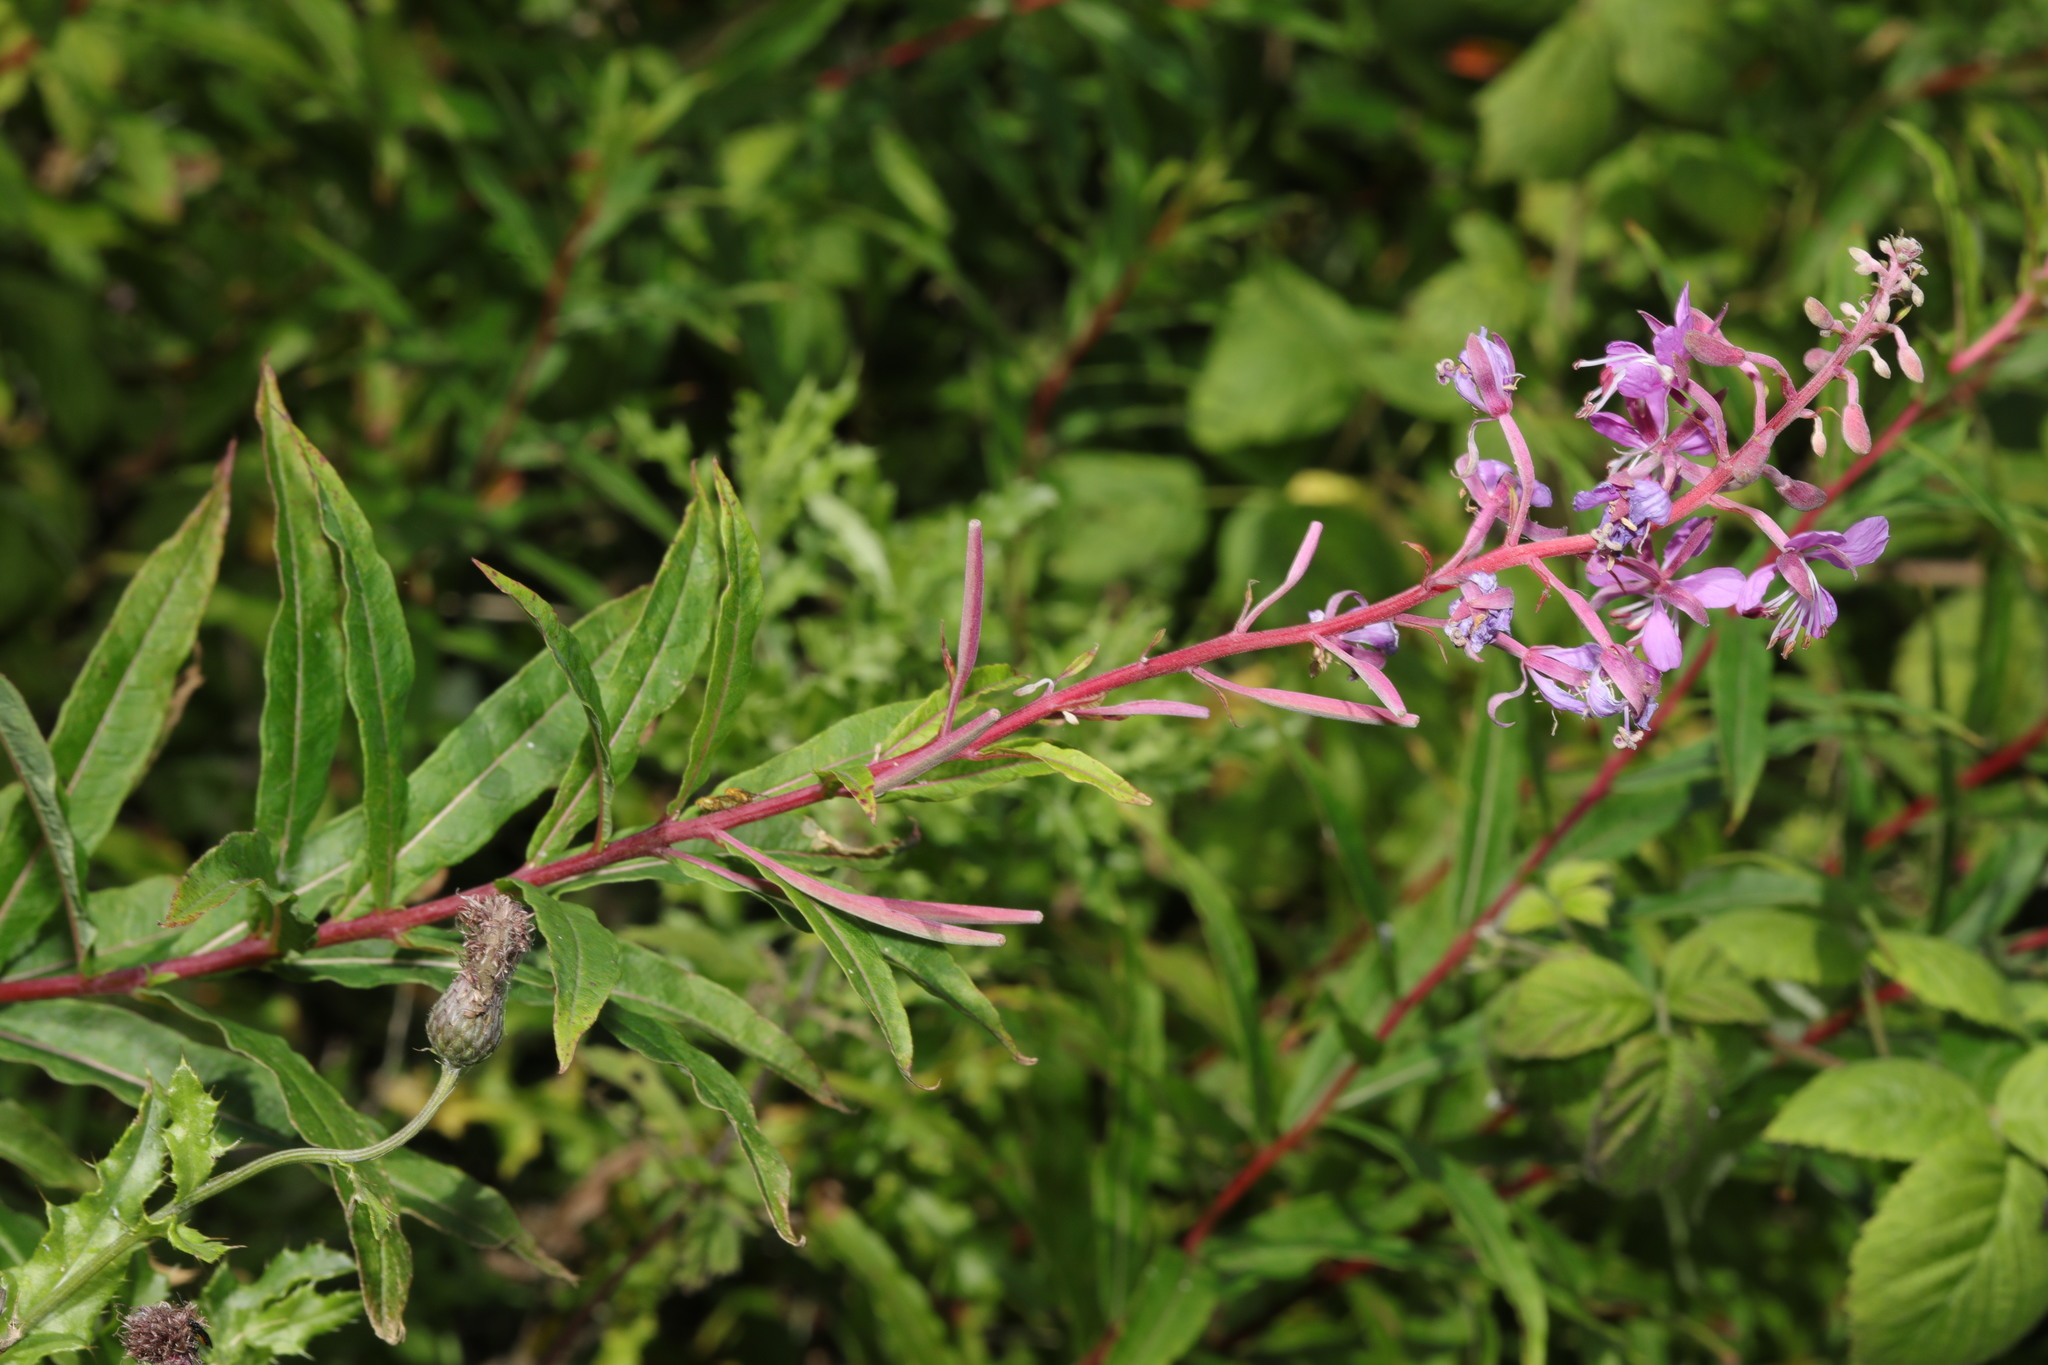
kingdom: Plantae
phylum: Tracheophyta
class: Magnoliopsida
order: Myrtales
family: Onagraceae
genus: Chamaenerion
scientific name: Chamaenerion angustifolium
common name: Fireweed
